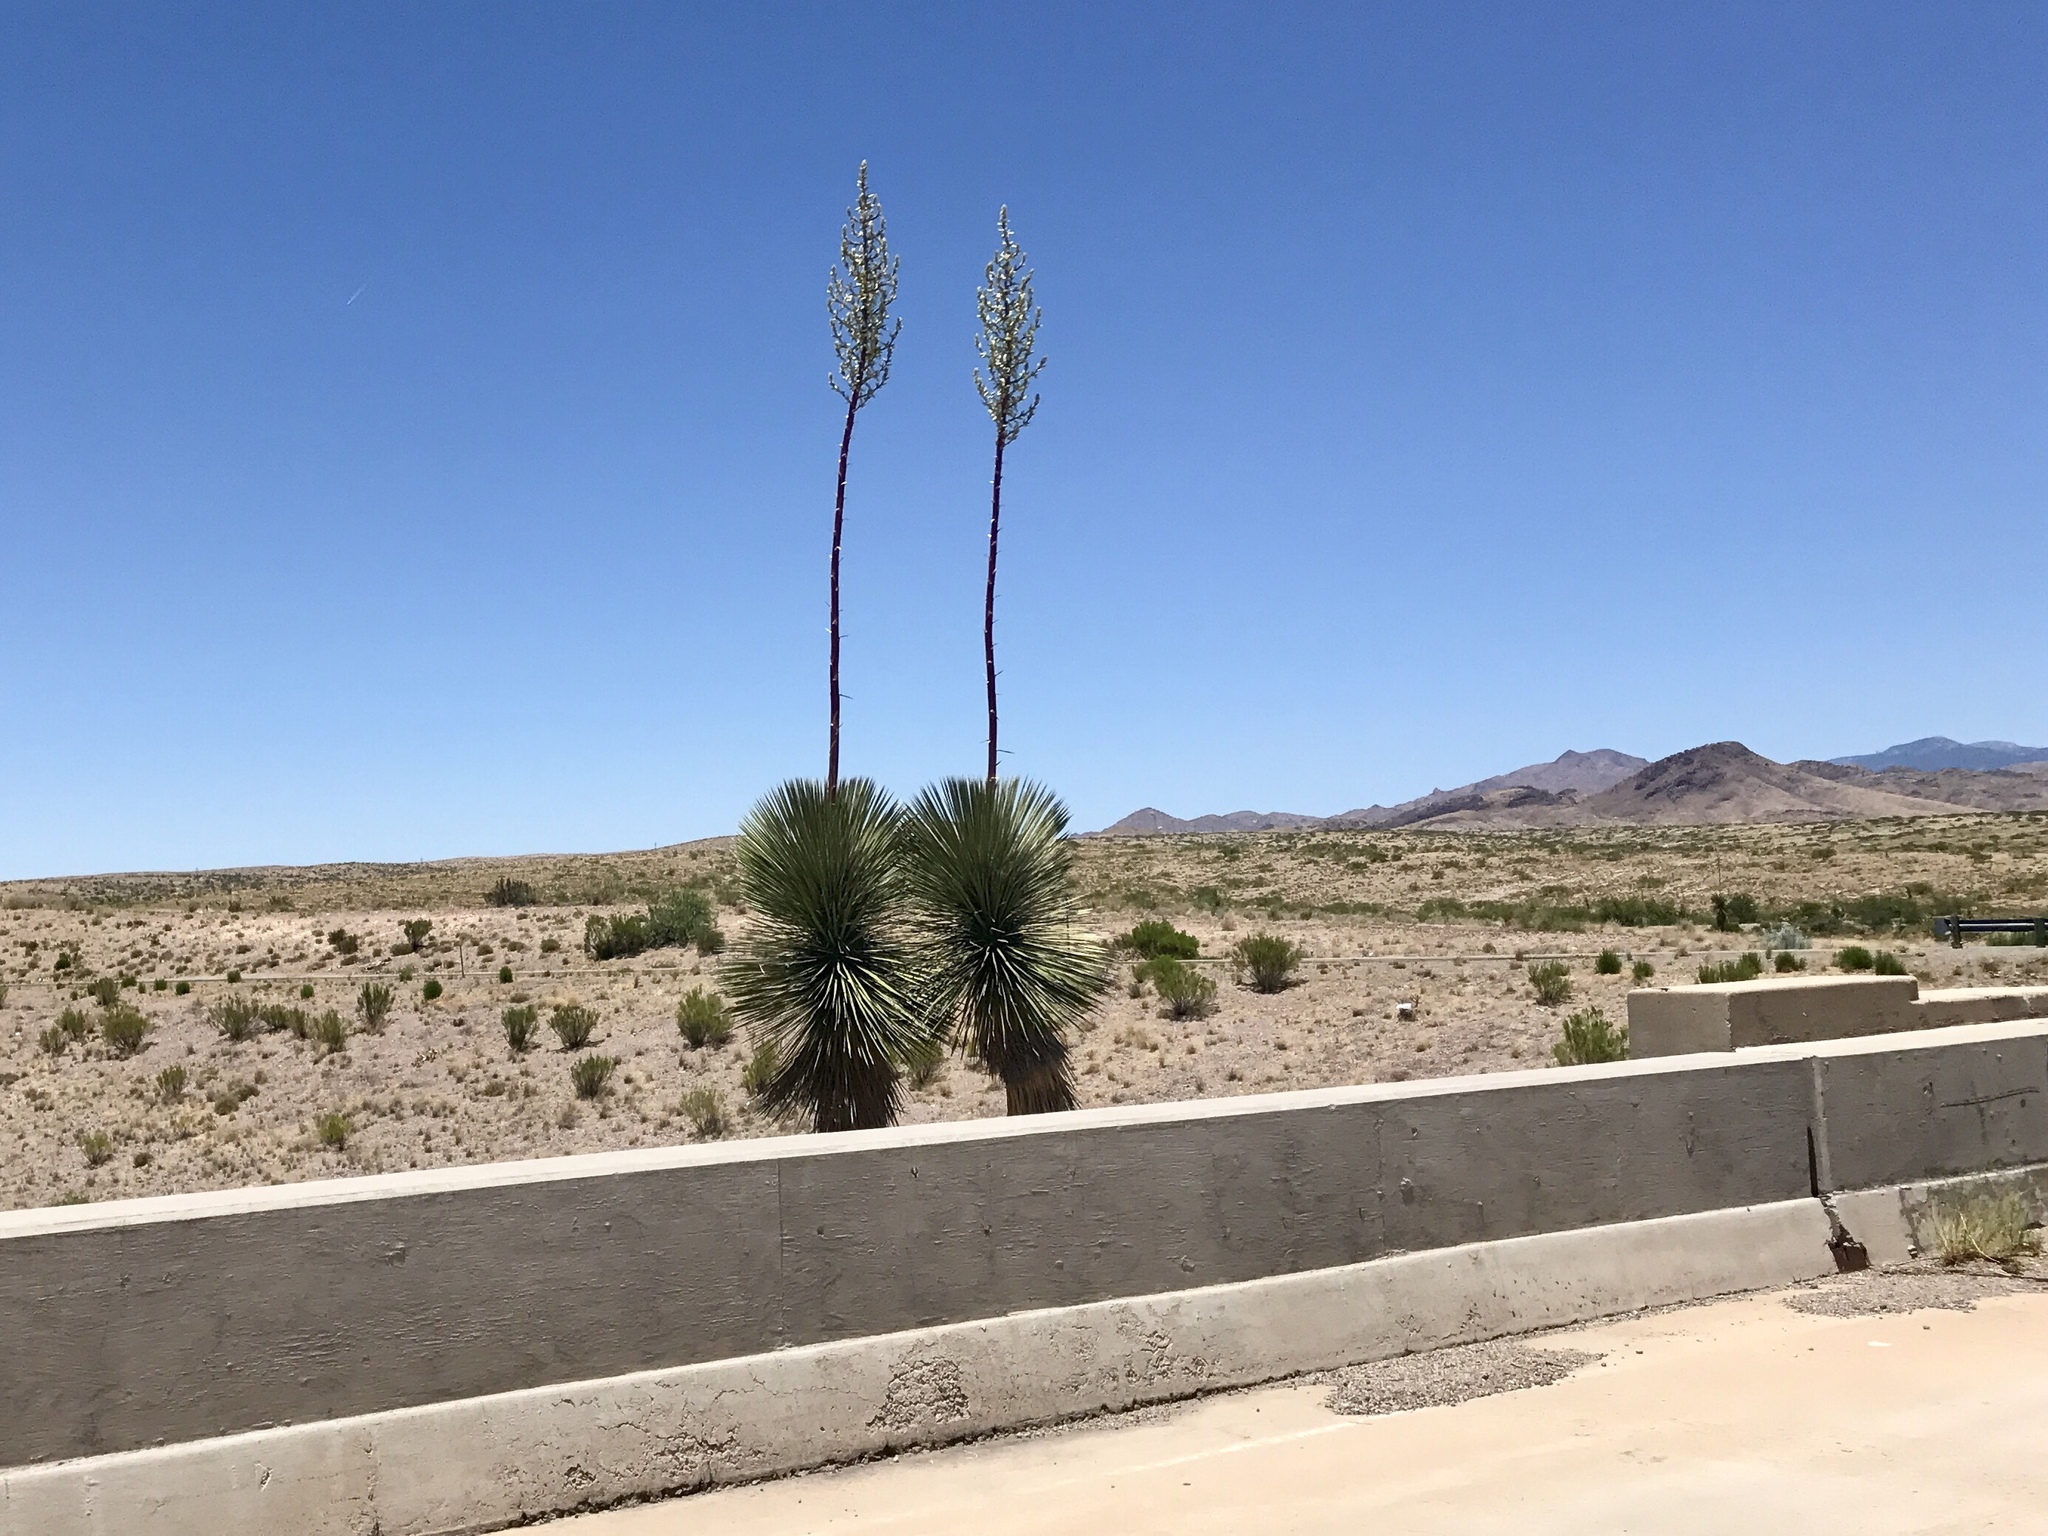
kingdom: Plantae
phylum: Tracheophyta
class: Liliopsida
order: Asparagales
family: Asparagaceae
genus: Yucca
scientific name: Yucca elata
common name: Palmella
